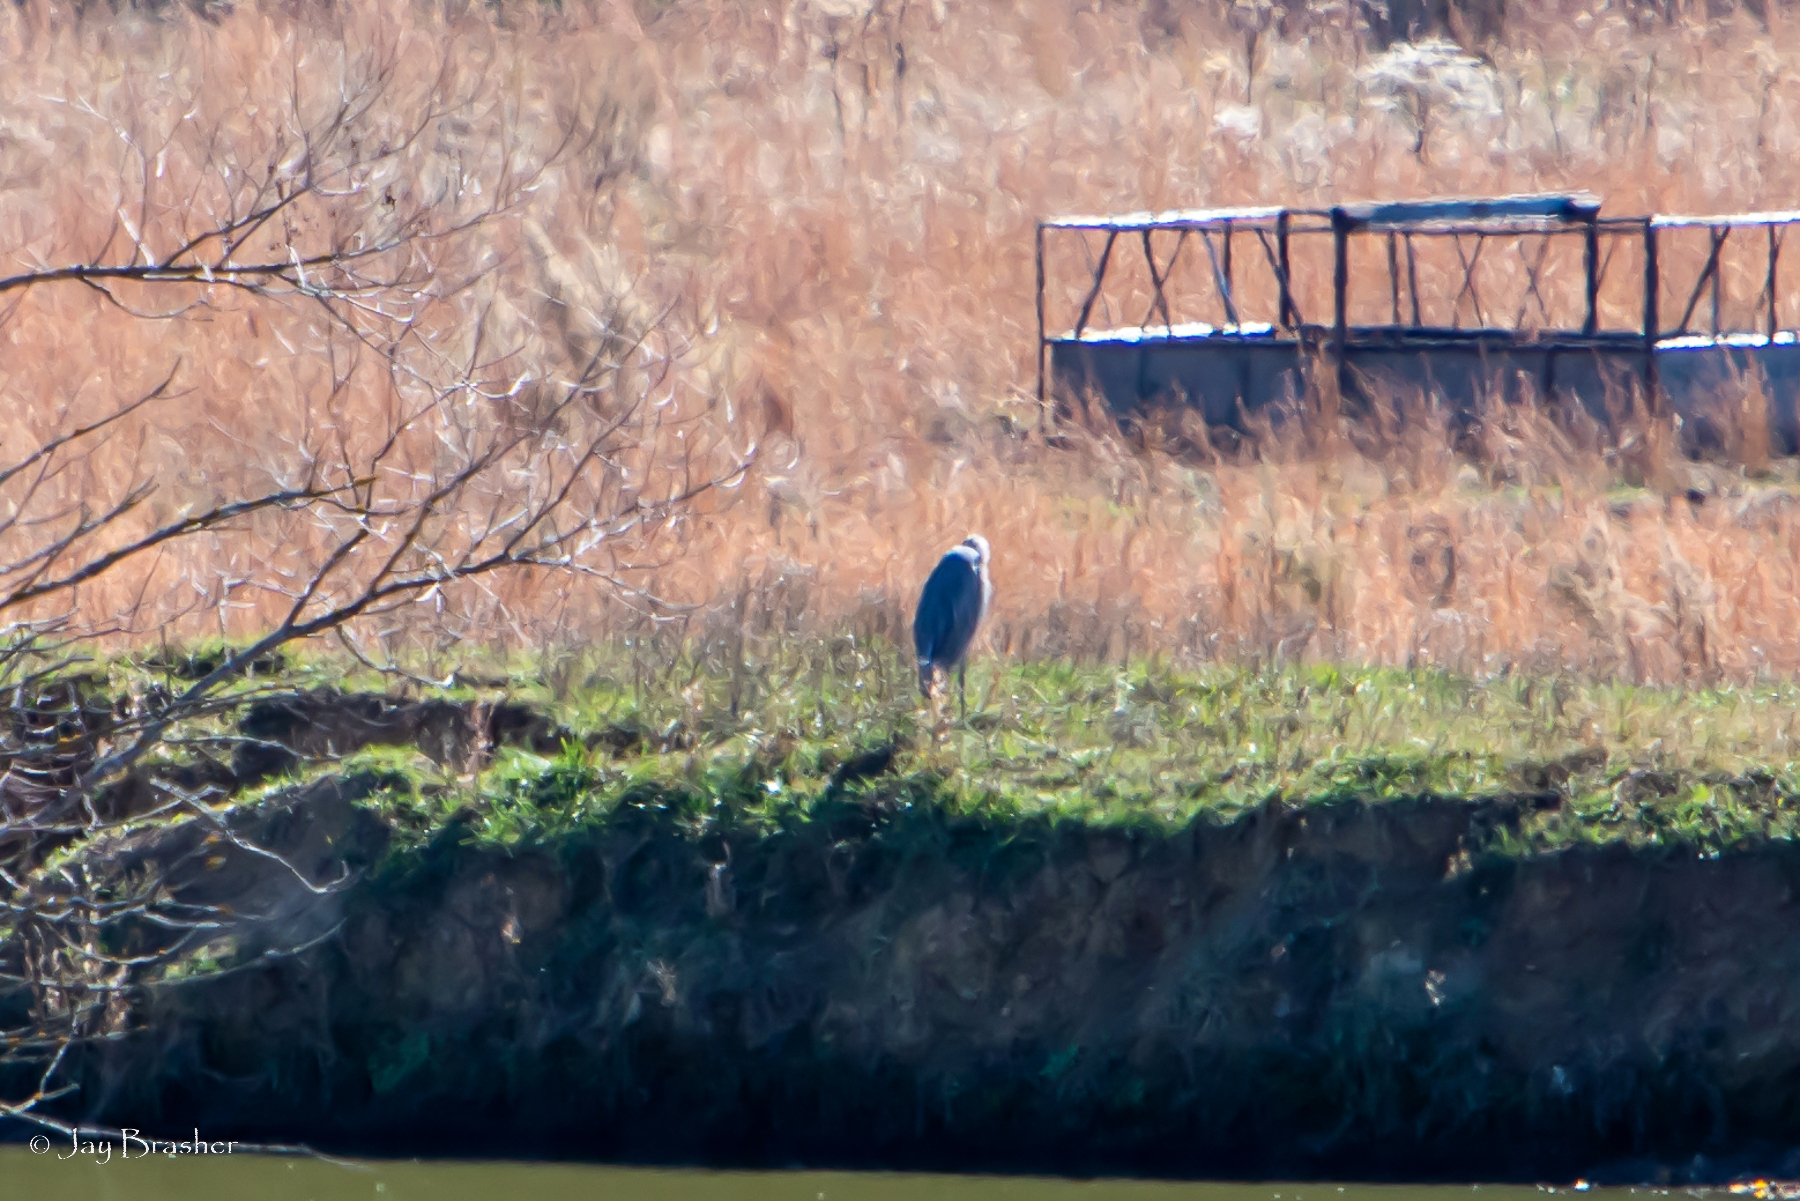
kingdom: Animalia
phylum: Chordata
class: Aves
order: Pelecaniformes
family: Ardeidae
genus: Ardea
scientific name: Ardea herodias
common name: Great blue heron
